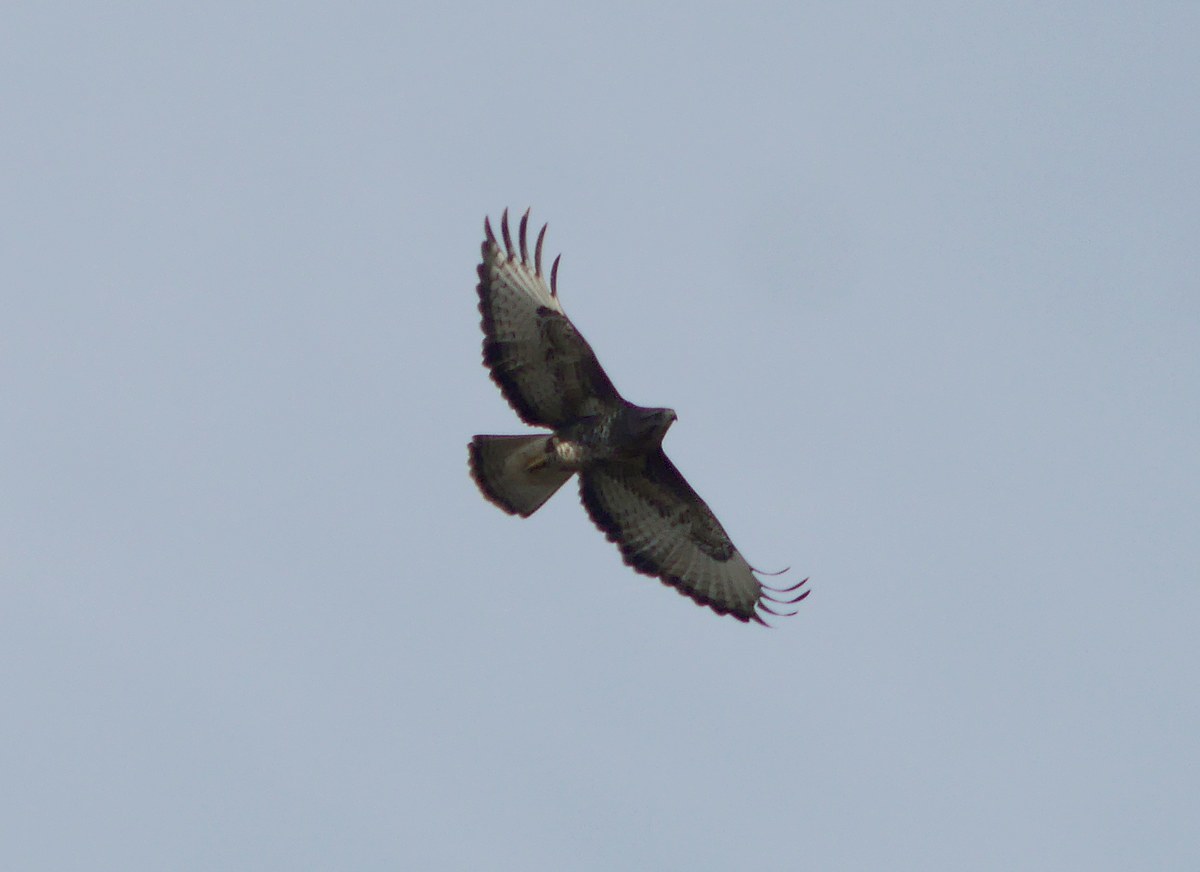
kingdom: Animalia
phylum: Chordata
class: Aves
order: Accipitriformes
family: Accipitridae
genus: Buteo
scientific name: Buteo buteo
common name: Common buzzard
